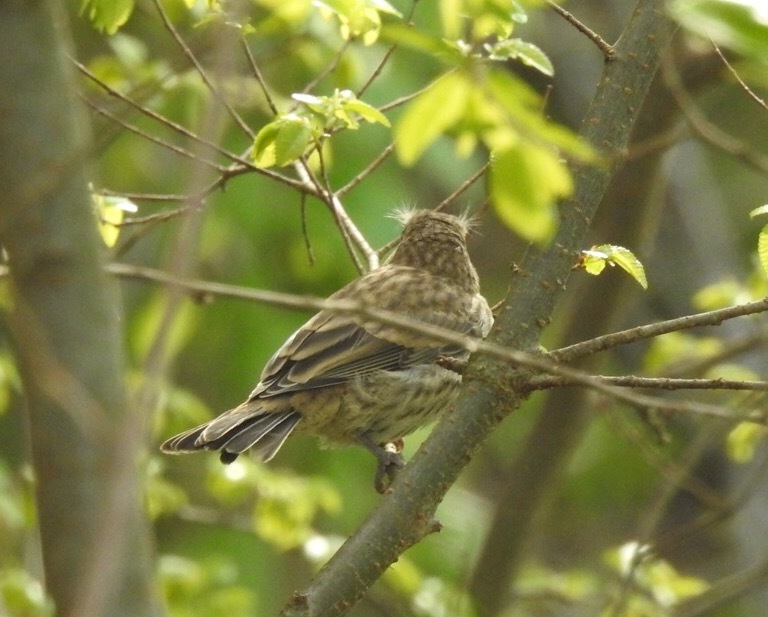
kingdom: Animalia
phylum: Chordata
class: Aves
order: Passeriformes
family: Fringillidae
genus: Haemorhous
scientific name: Haemorhous mexicanus
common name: House finch
